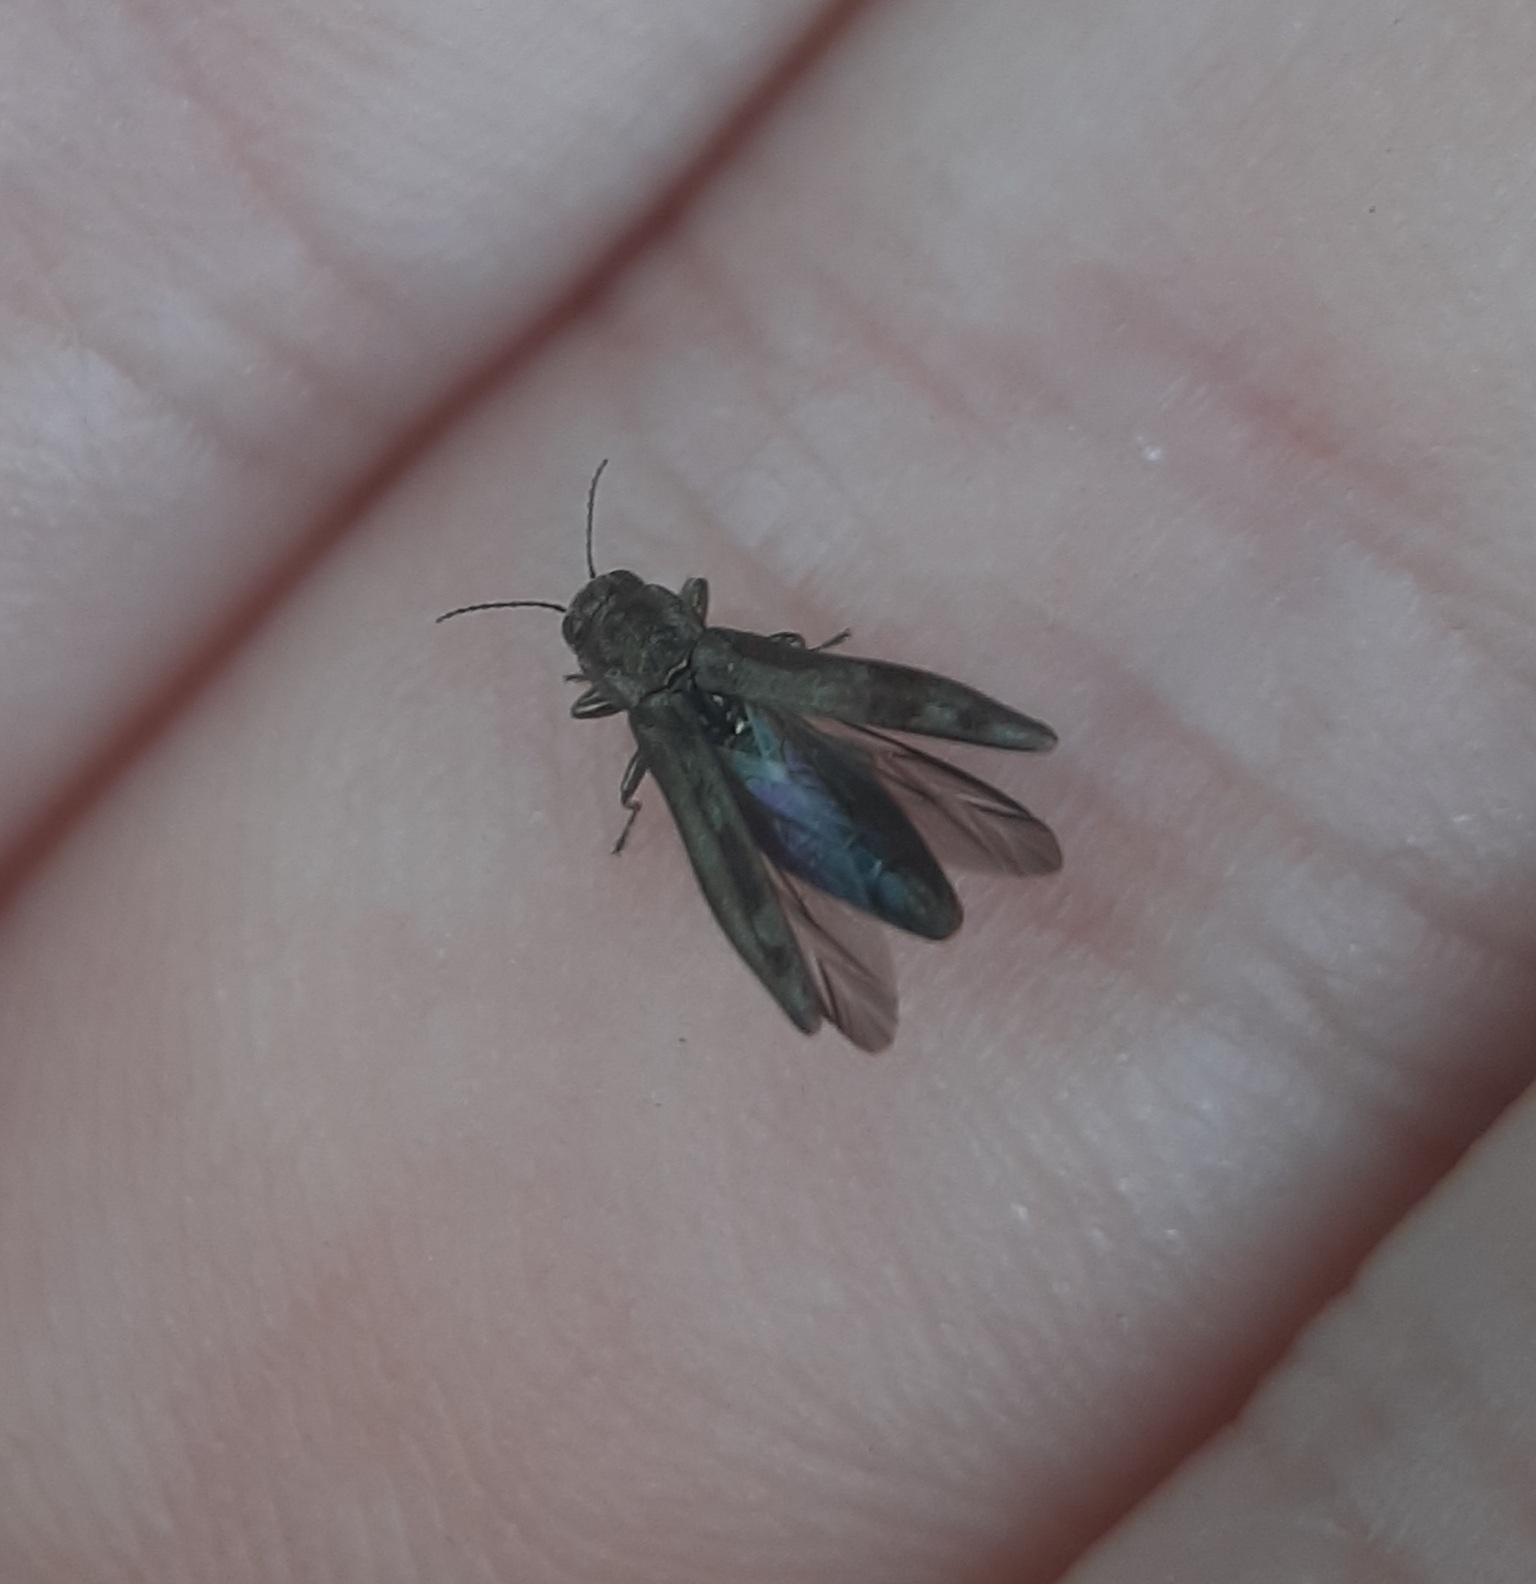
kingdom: Animalia
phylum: Arthropoda
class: Insecta
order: Coleoptera
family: Buprestidae
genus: Agrilus
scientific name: Agrilus lecontei
